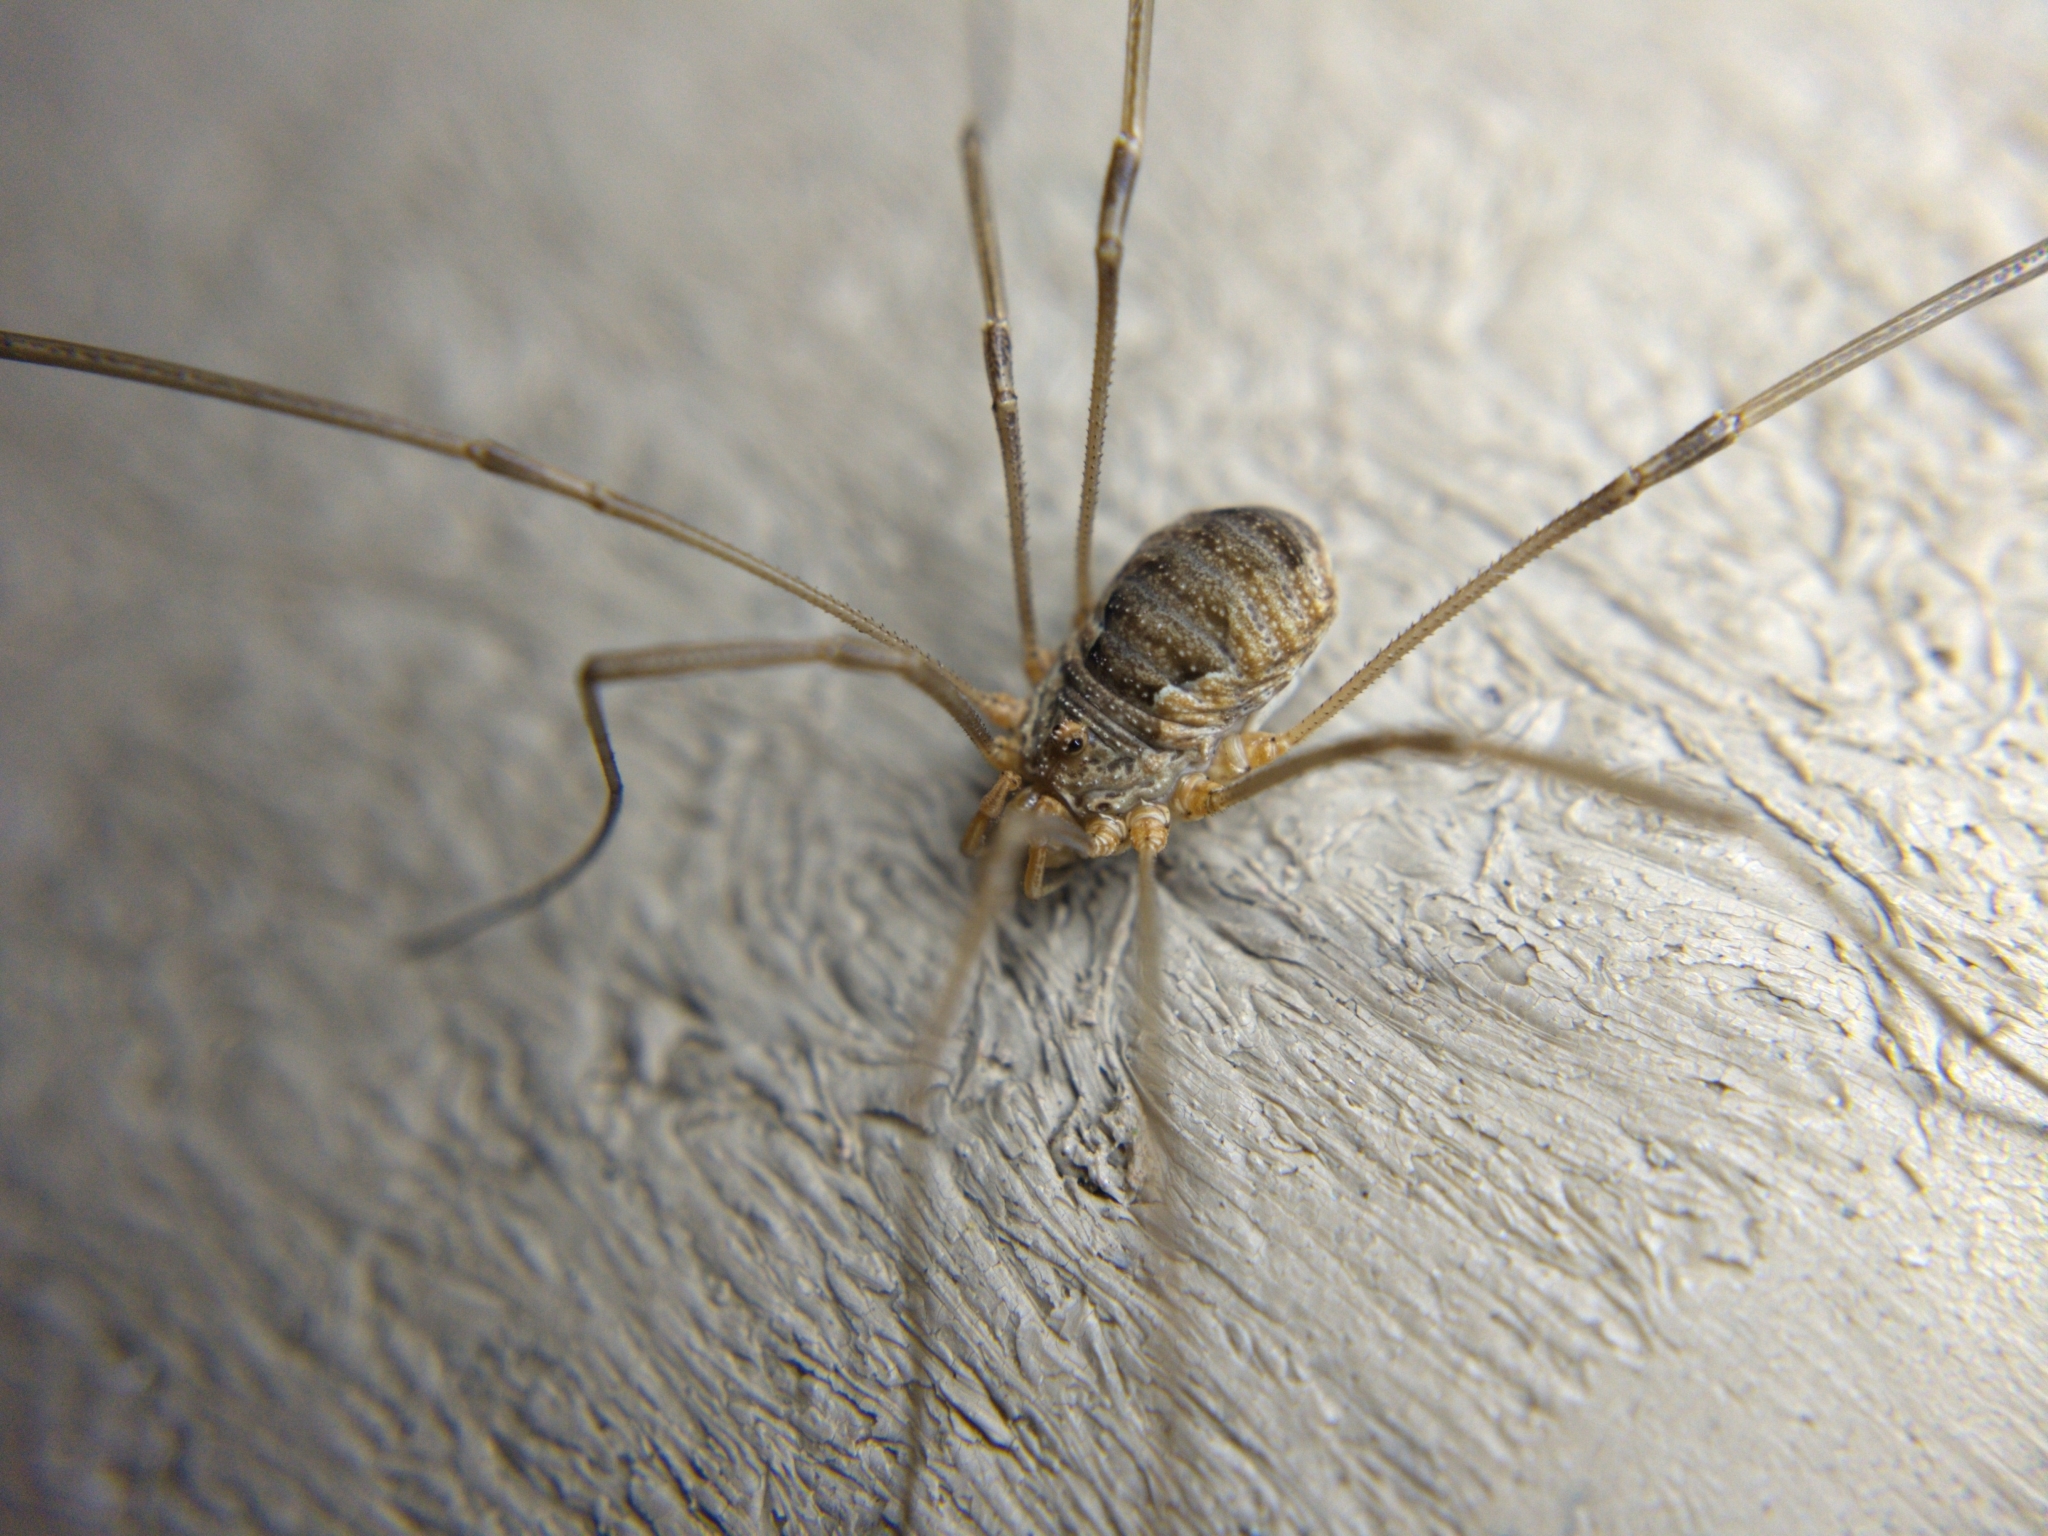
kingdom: Animalia
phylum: Arthropoda
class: Arachnida
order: Opiliones
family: Phalangiidae
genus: Phalangium
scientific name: Phalangium opilio
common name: Daddy longleg
